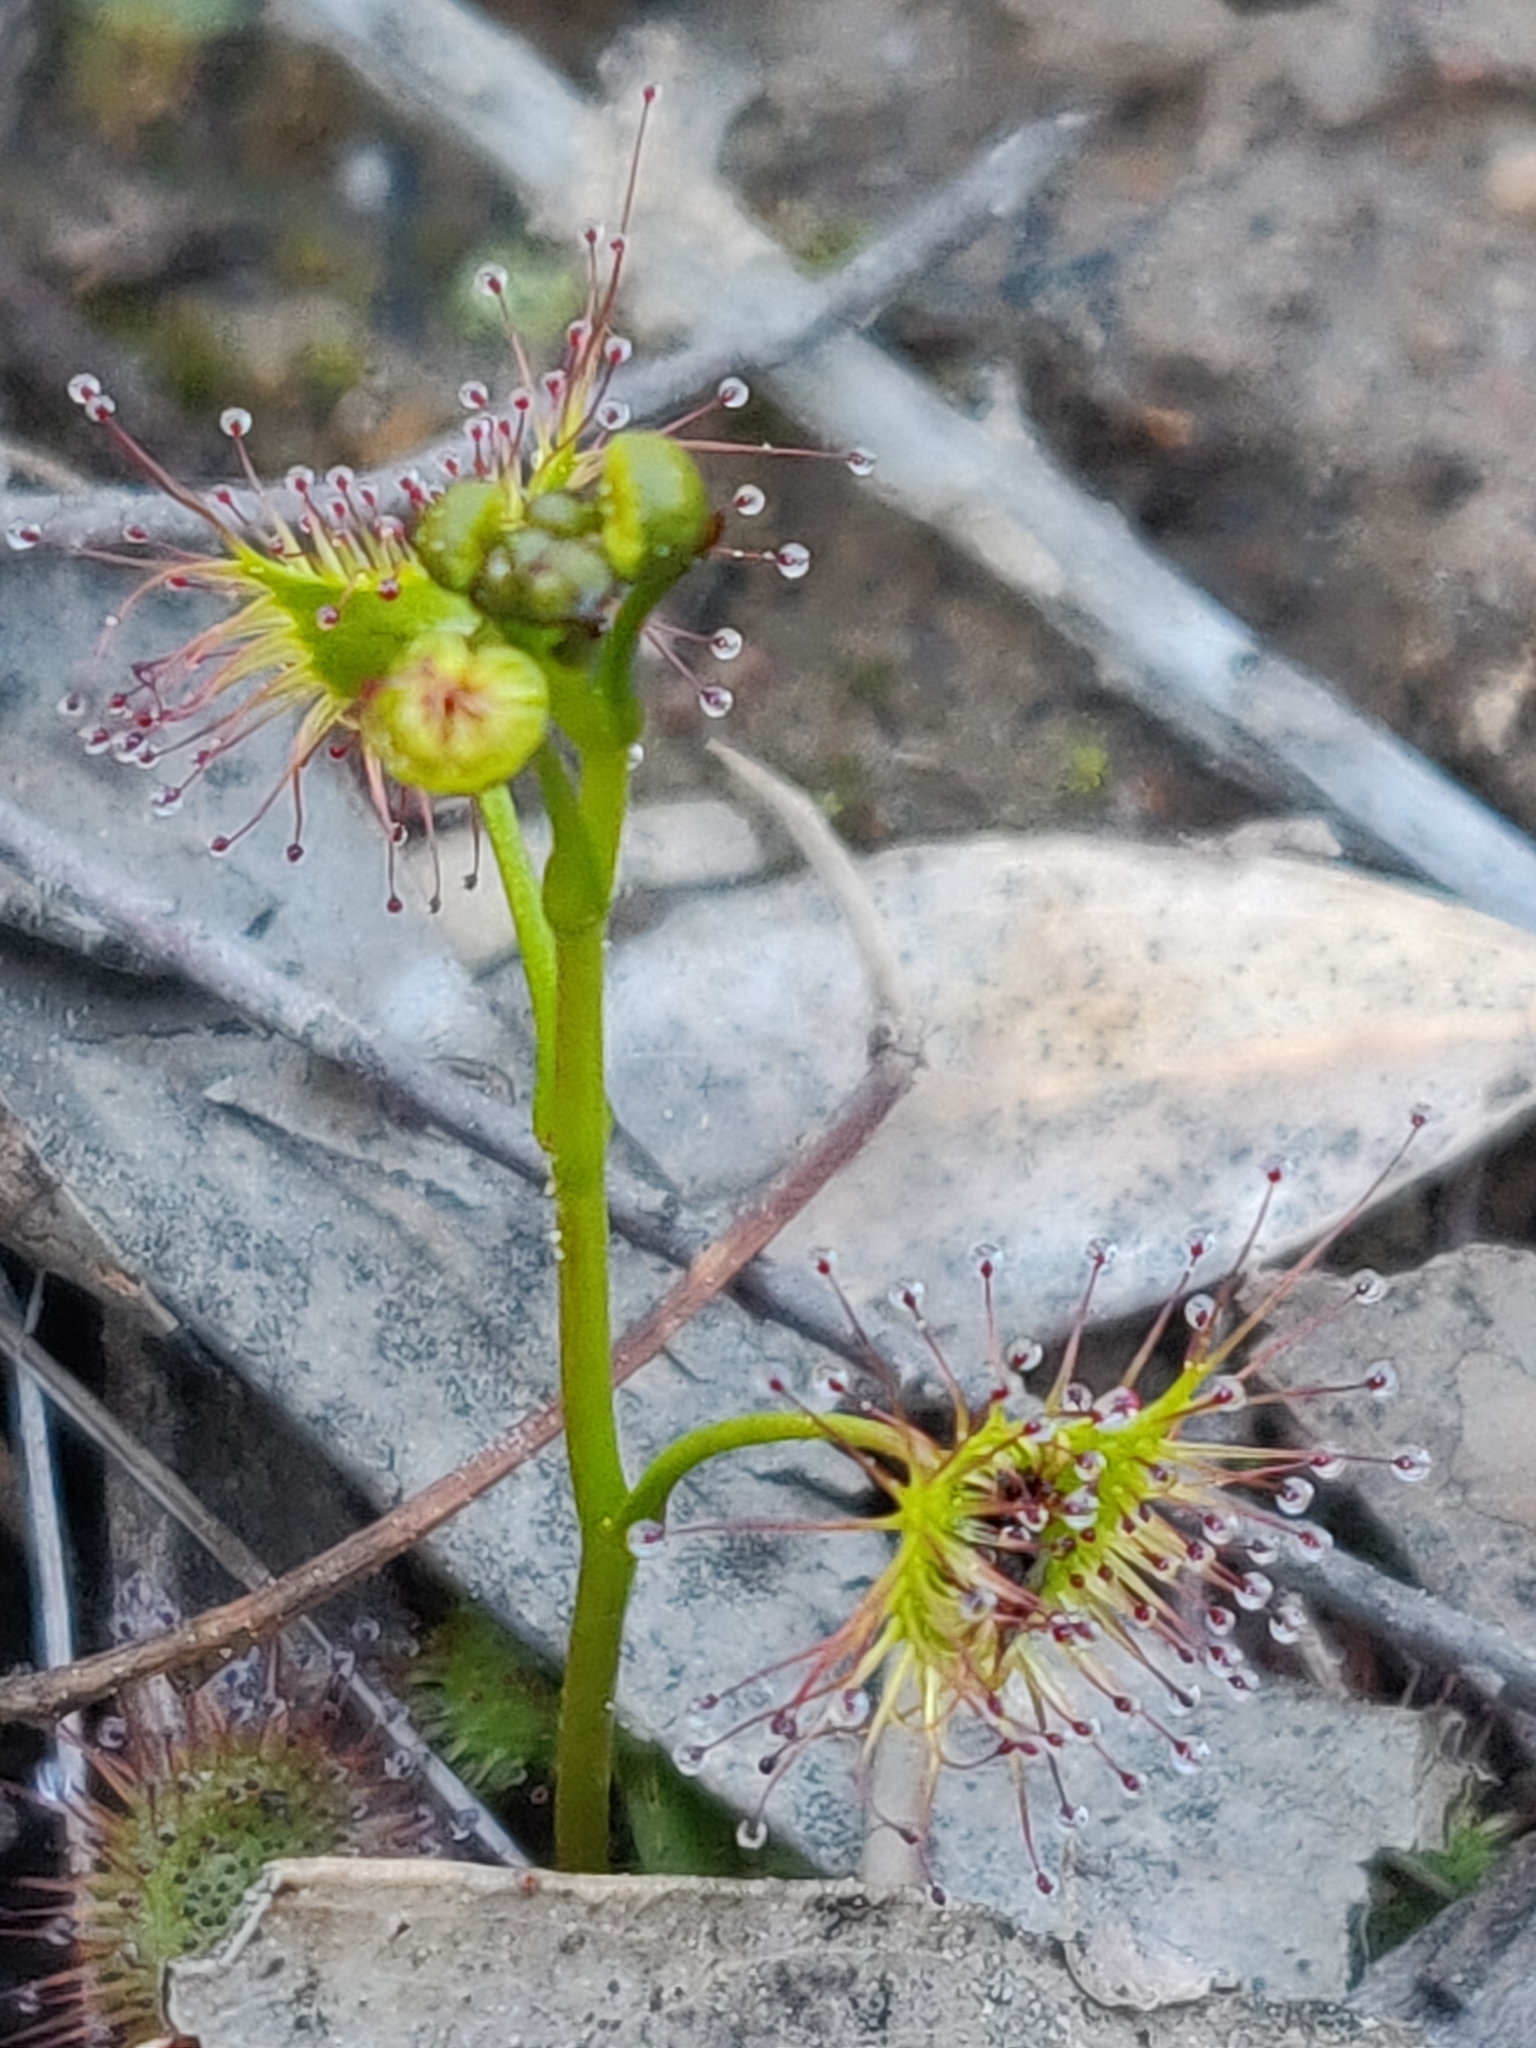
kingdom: Plantae
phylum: Tracheophyta
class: Magnoliopsida
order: Caryophyllales
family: Droseraceae
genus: Drosera
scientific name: Drosera peltata
